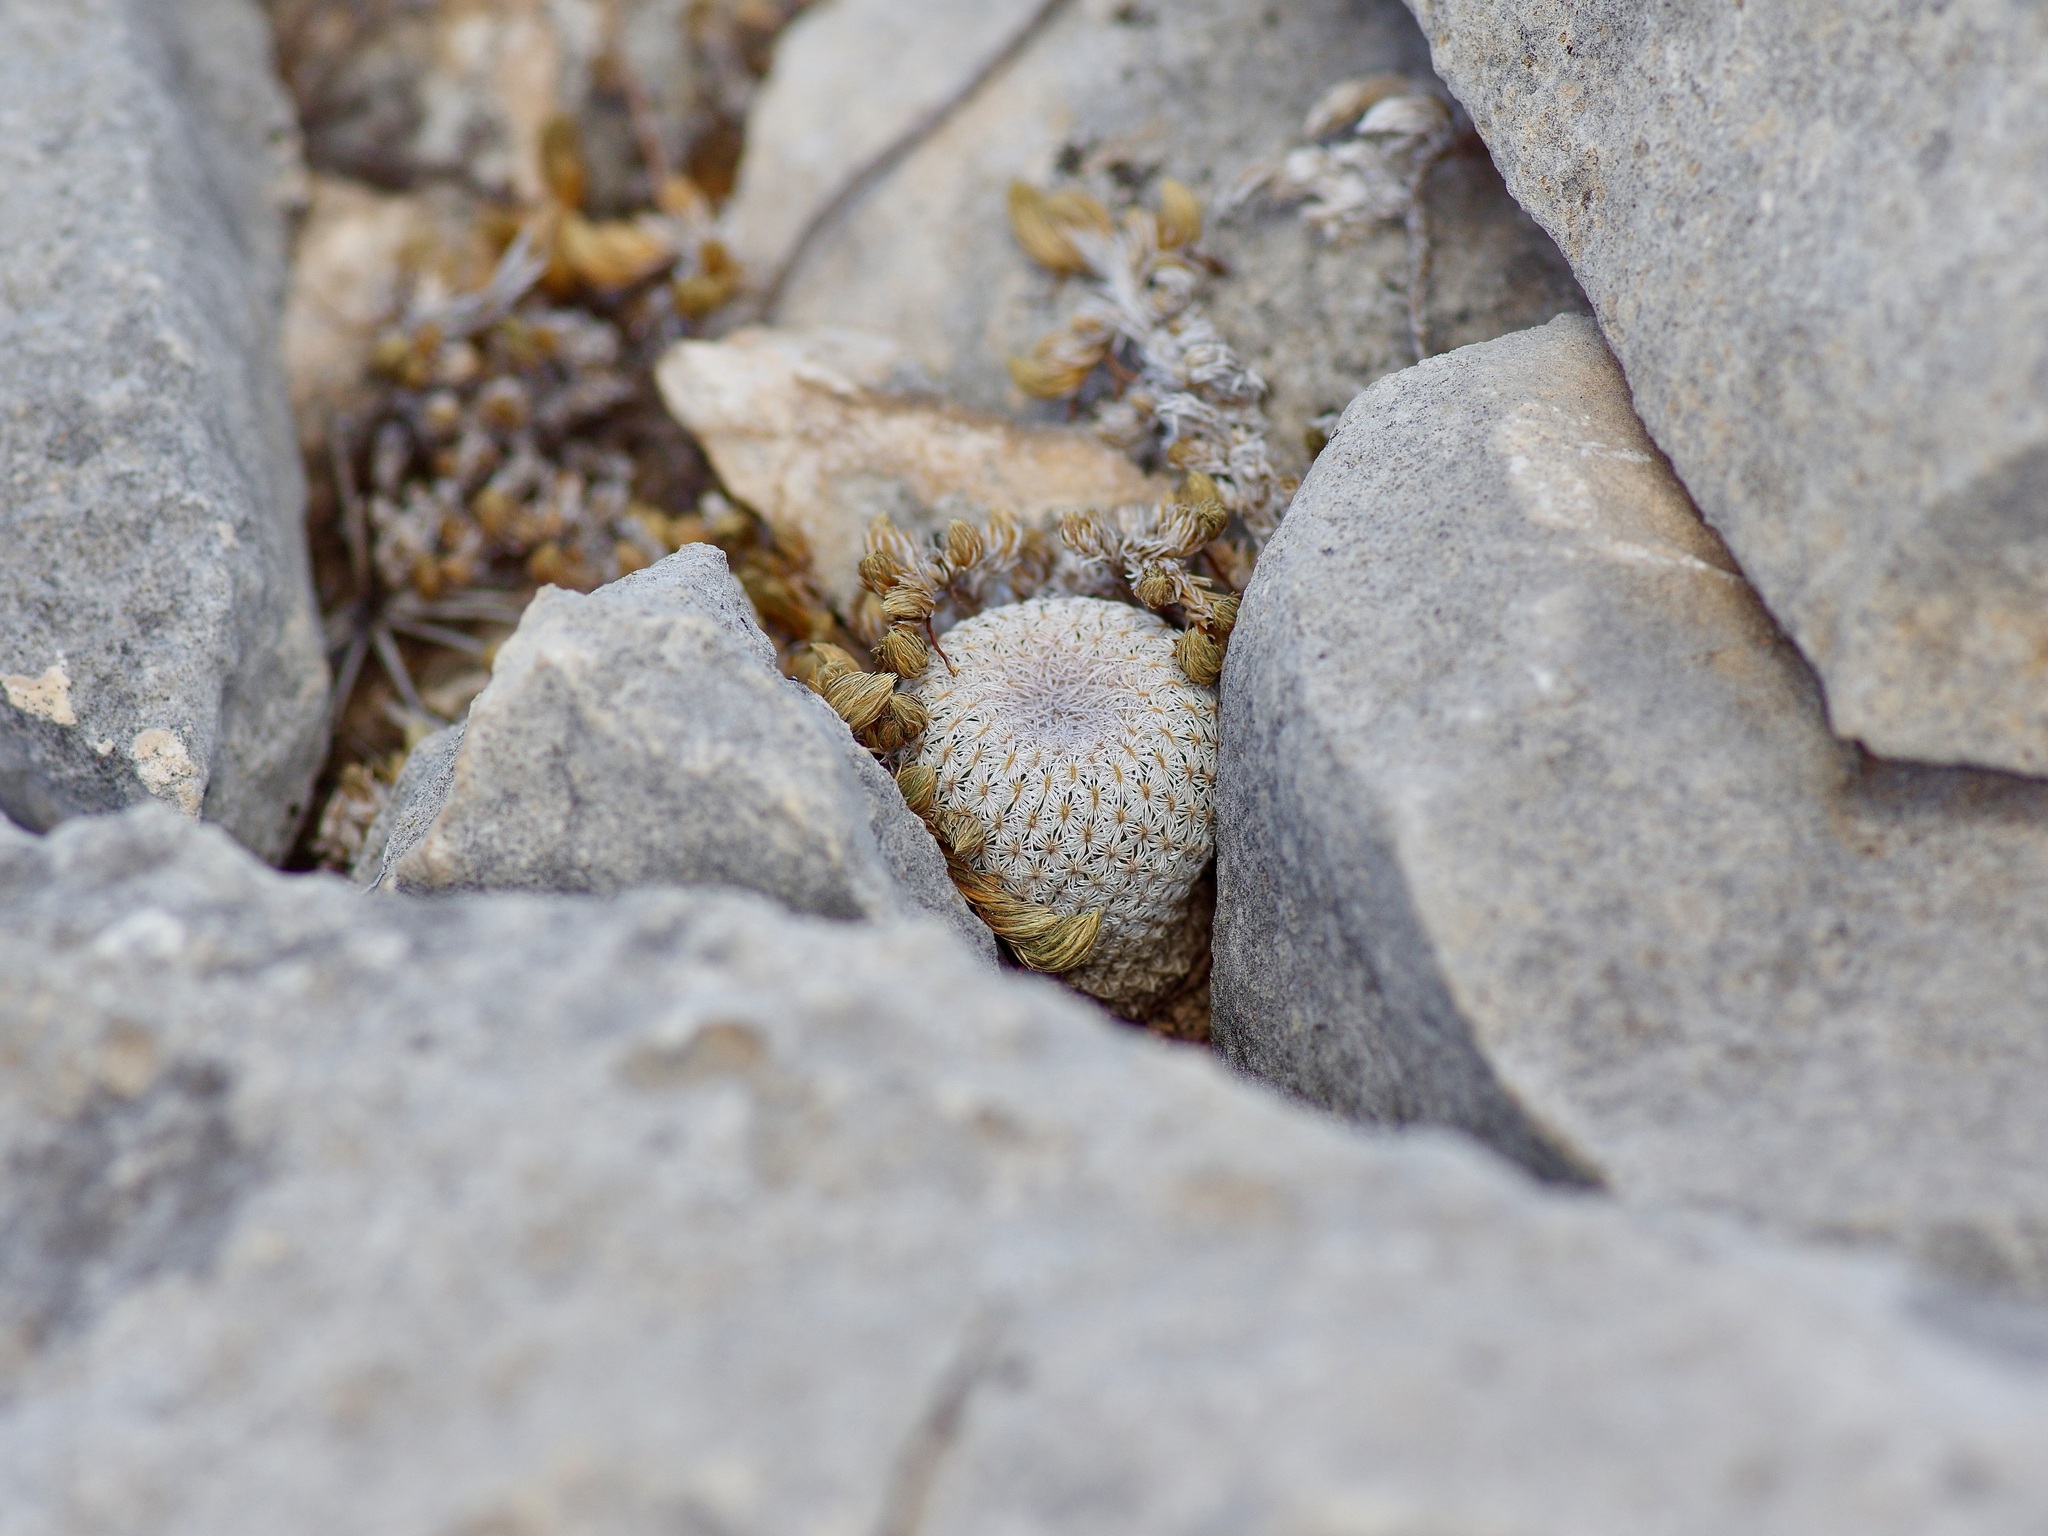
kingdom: Plantae
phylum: Tracheophyta
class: Magnoliopsida
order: Caryophyllales
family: Cactaceae
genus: Epithelantha
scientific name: Epithelantha micromeris
